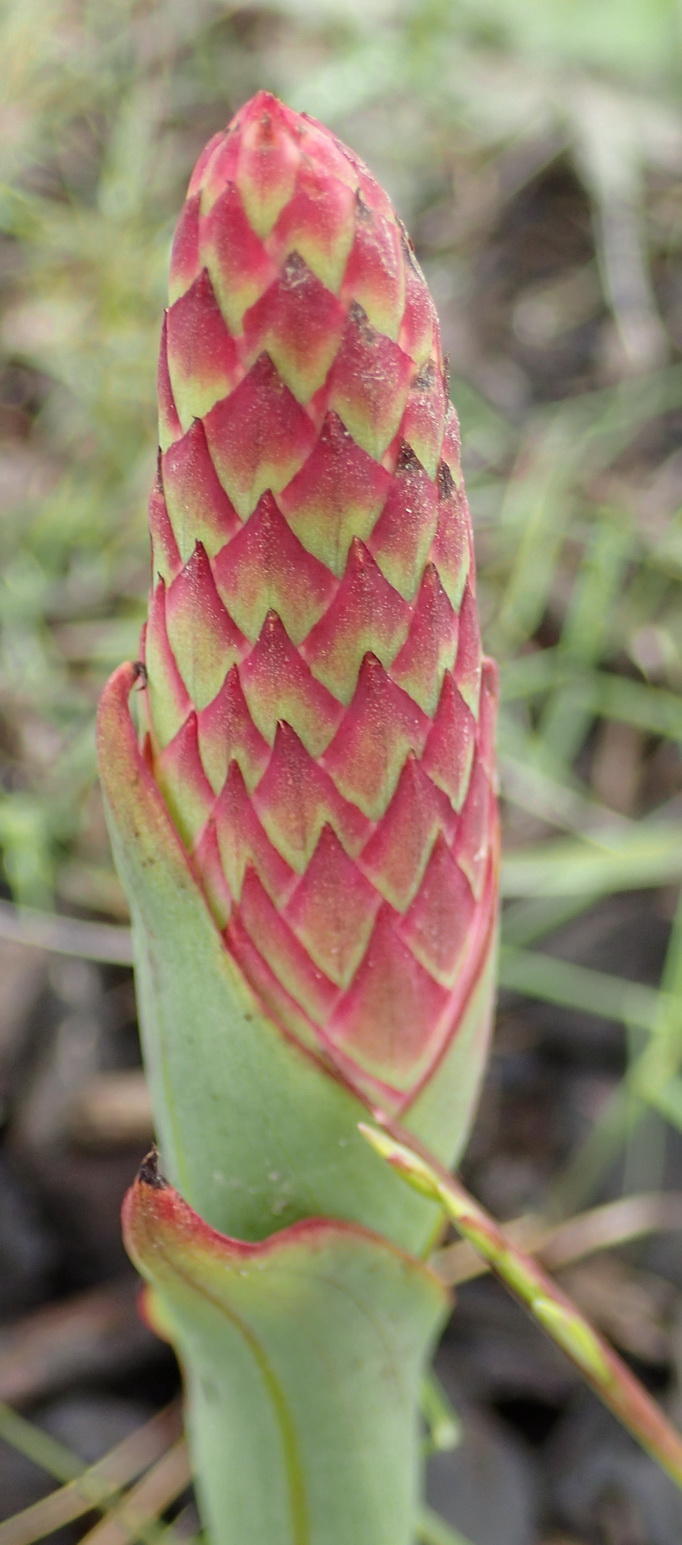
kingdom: Plantae
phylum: Tracheophyta
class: Liliopsida
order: Asparagales
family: Orchidaceae
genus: Disa
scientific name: Disa chrysostachya
